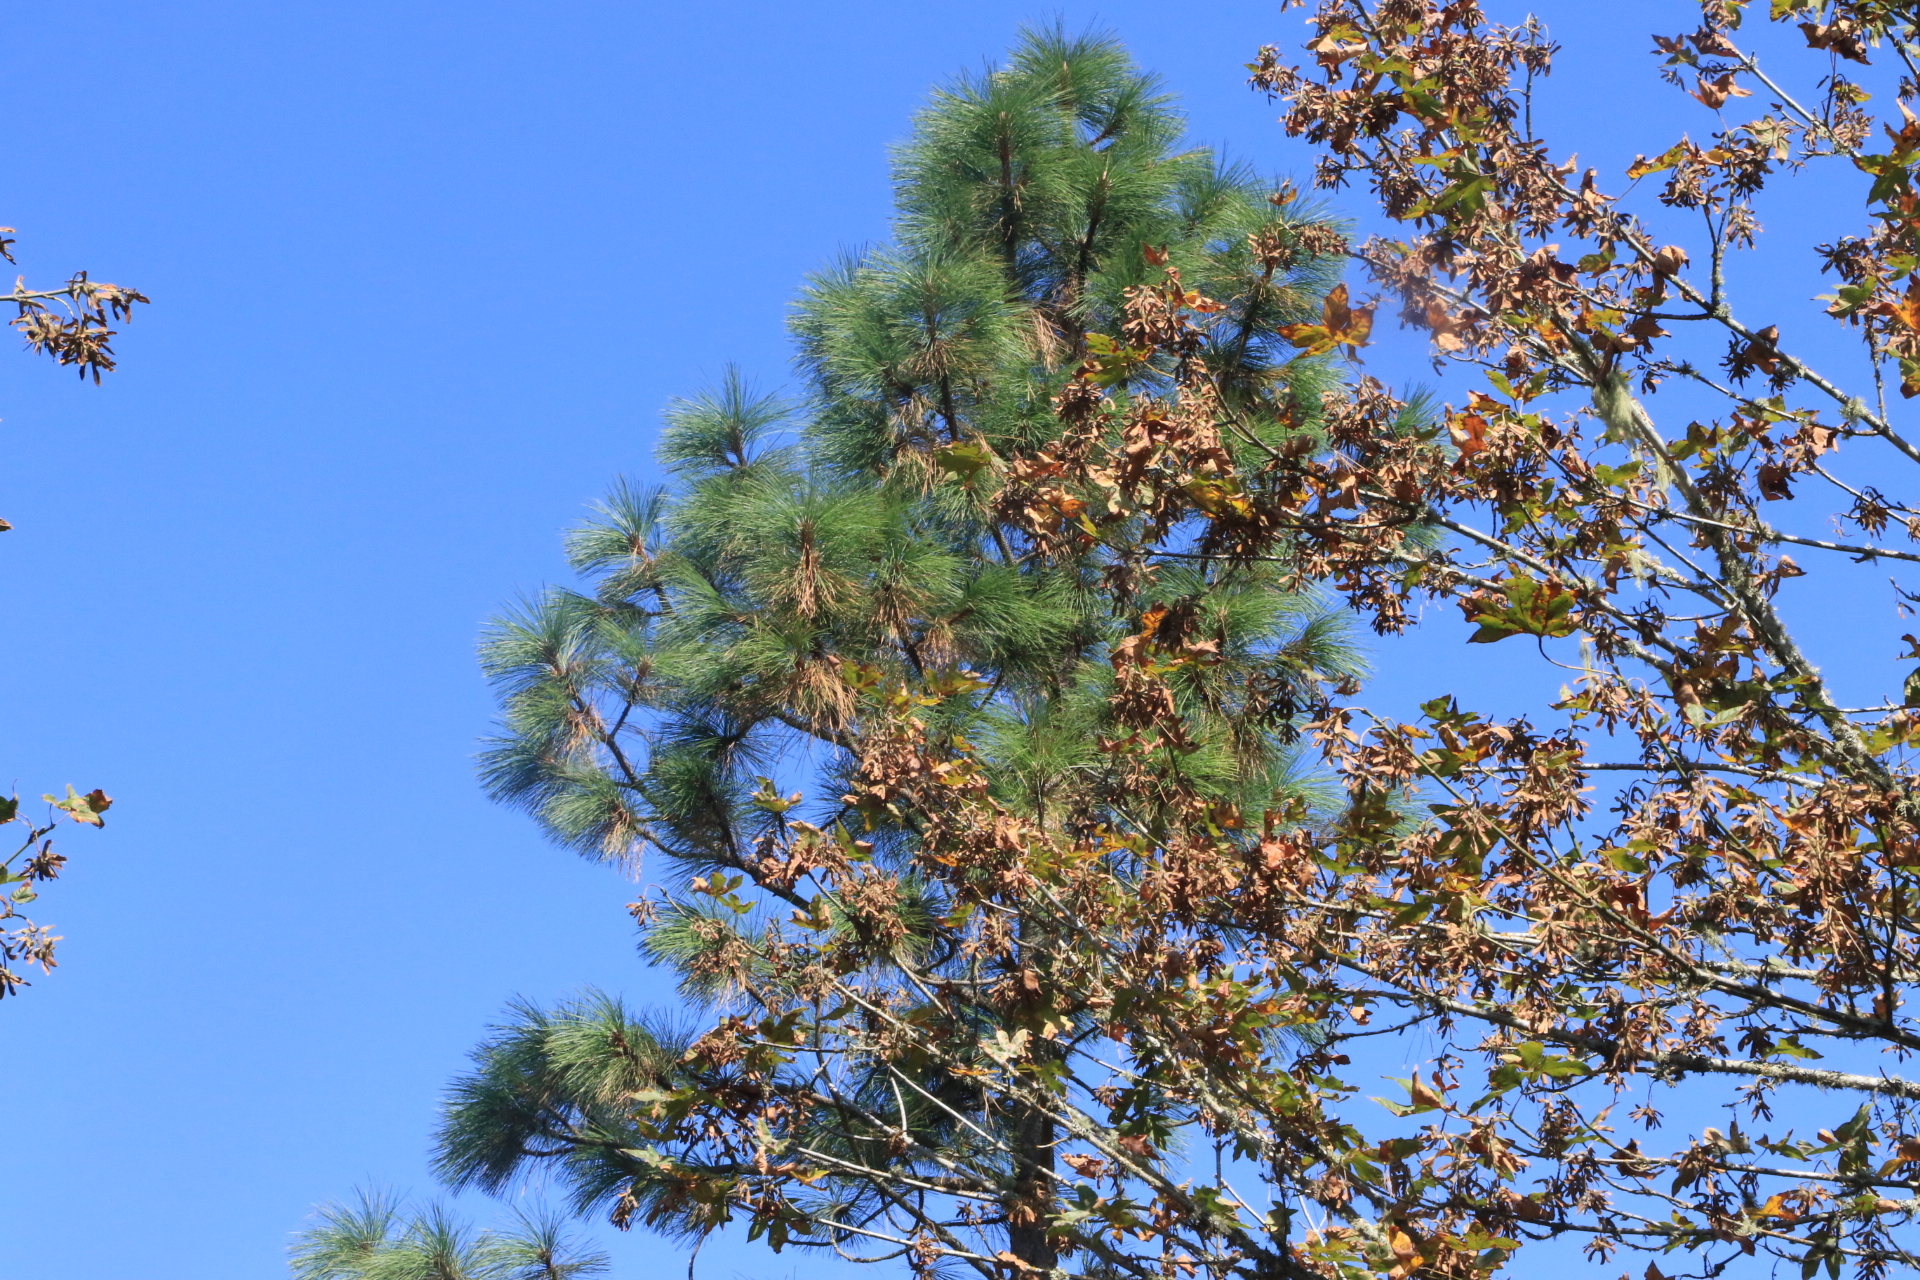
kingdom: Plantae
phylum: Tracheophyta
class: Pinopsida
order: Pinales
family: Pinaceae
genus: Pinus
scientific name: Pinus ponderosa
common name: Western yellow-pine
